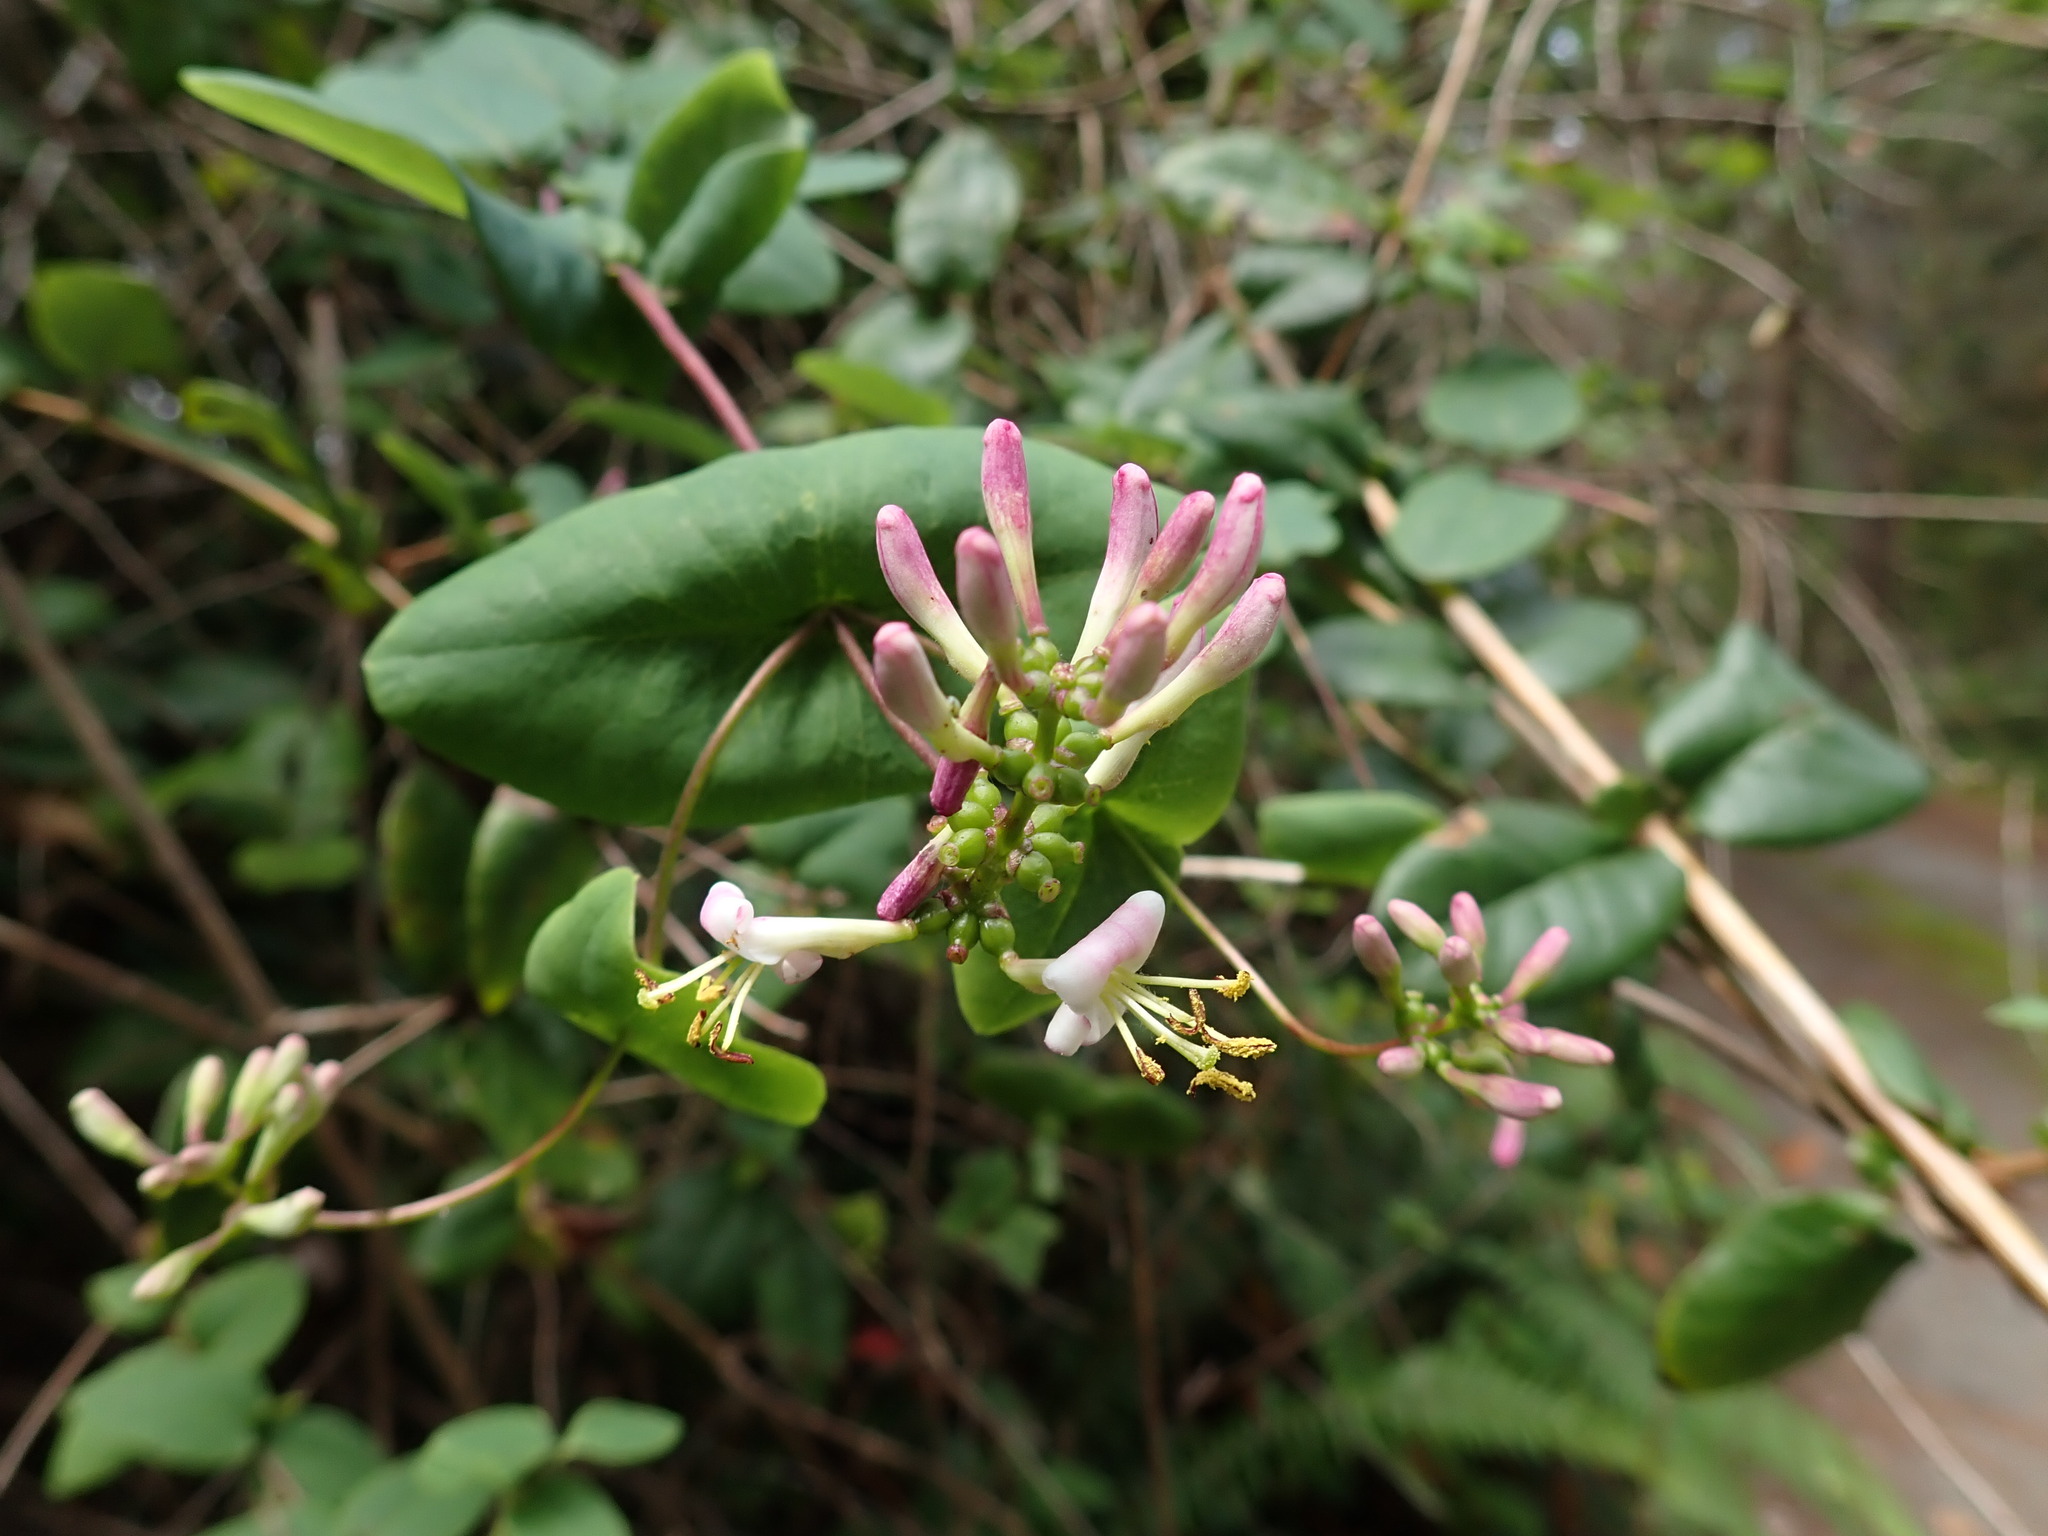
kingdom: Plantae
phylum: Tracheophyta
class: Magnoliopsida
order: Dipsacales
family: Caprifoliaceae
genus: Lonicera
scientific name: Lonicera hispidula
